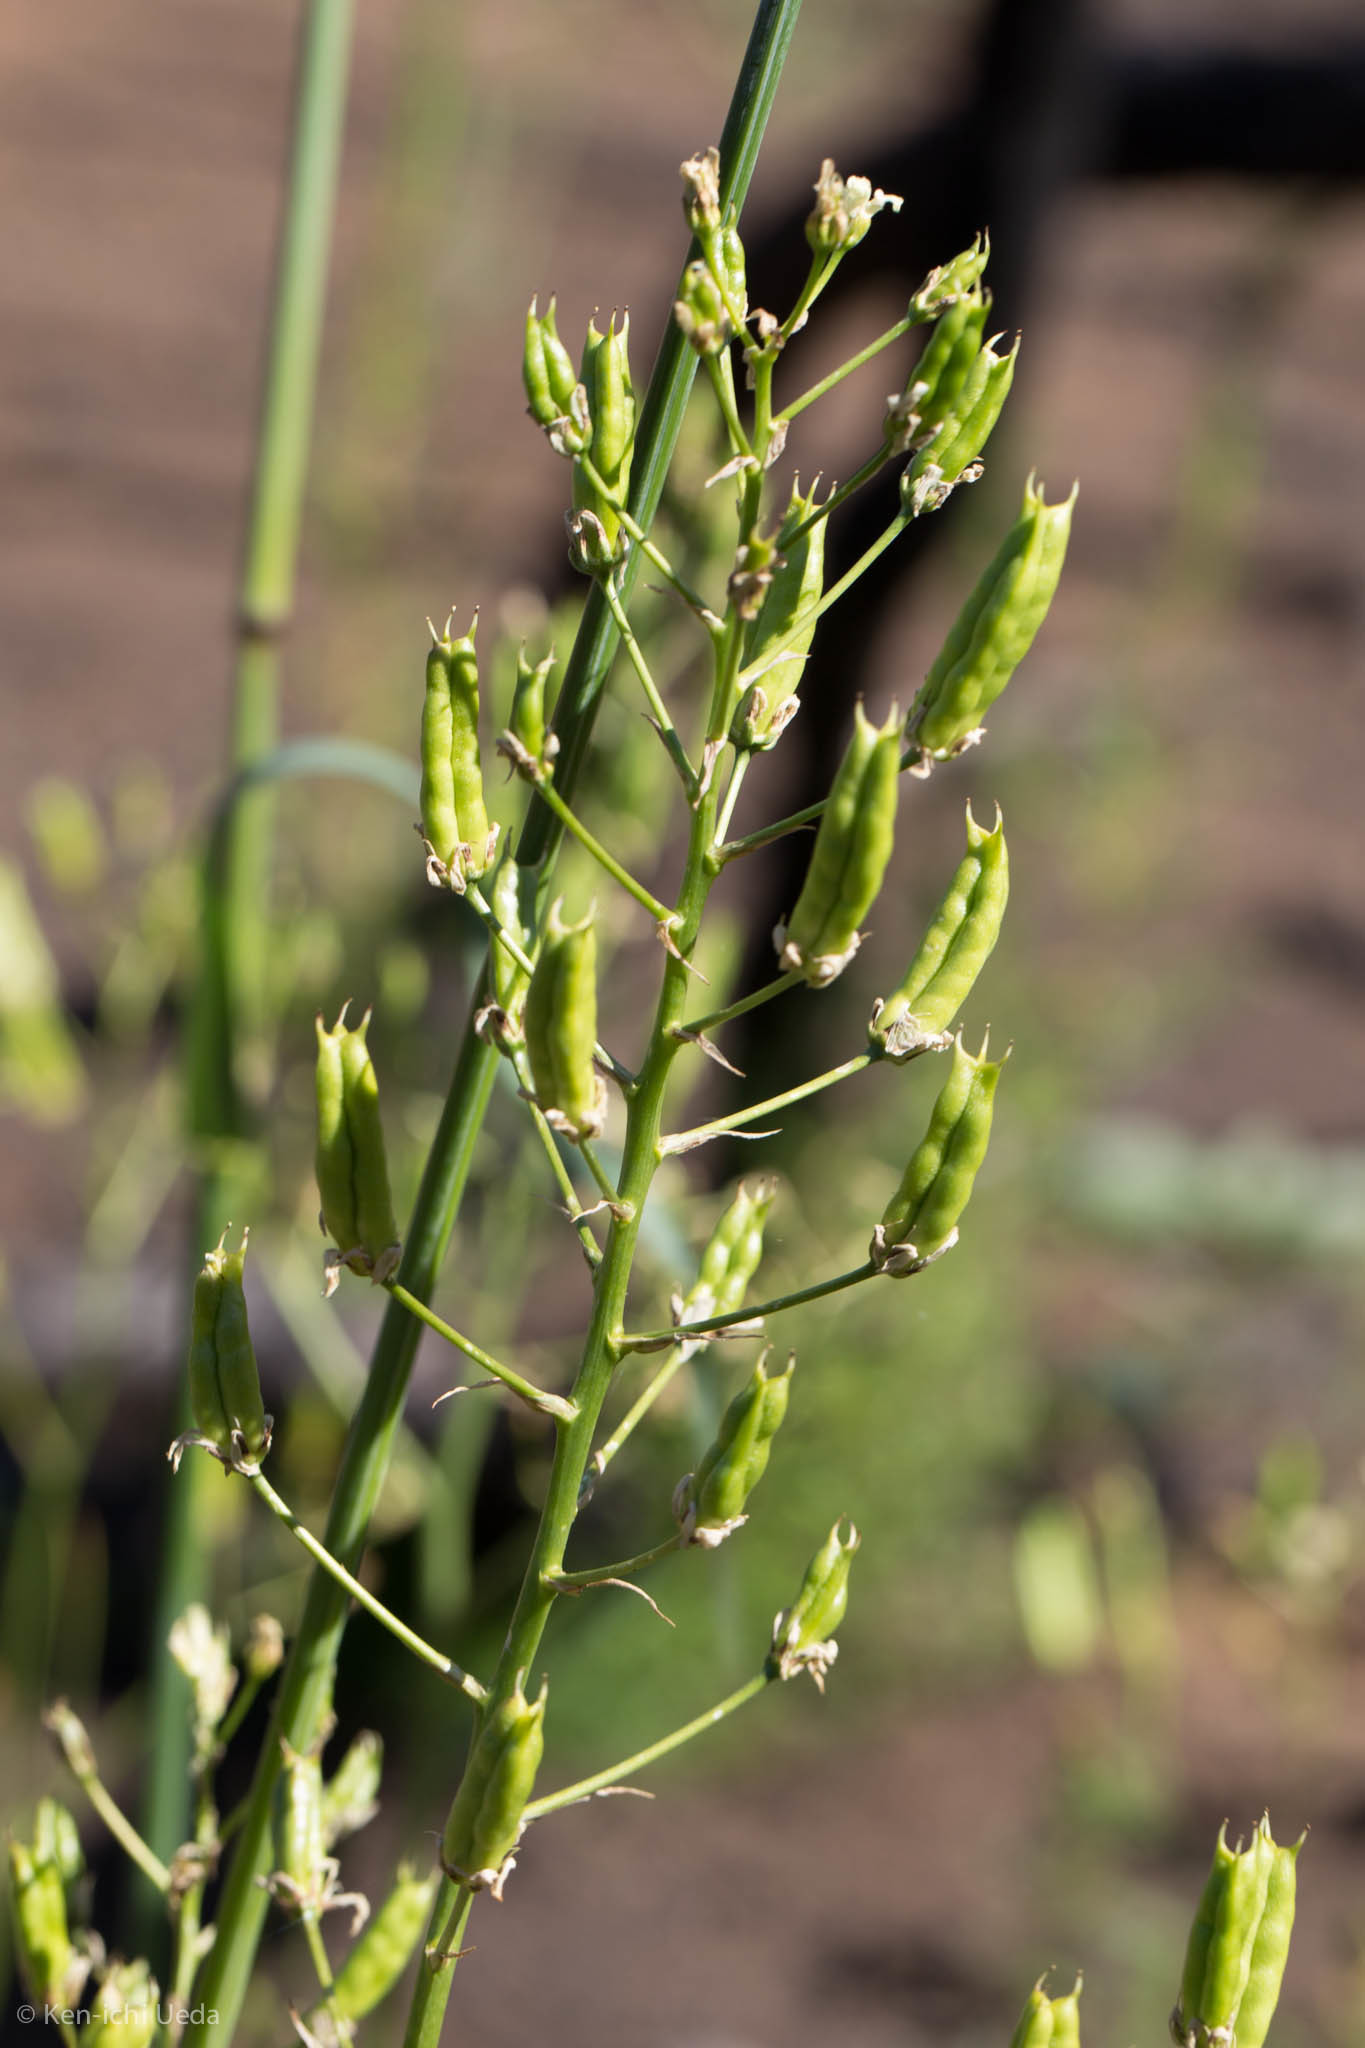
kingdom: Plantae
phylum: Tracheophyta
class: Liliopsida
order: Liliales
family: Melanthiaceae
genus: Toxicoscordion
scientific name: Toxicoscordion fremontii
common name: Fremont's death camas
